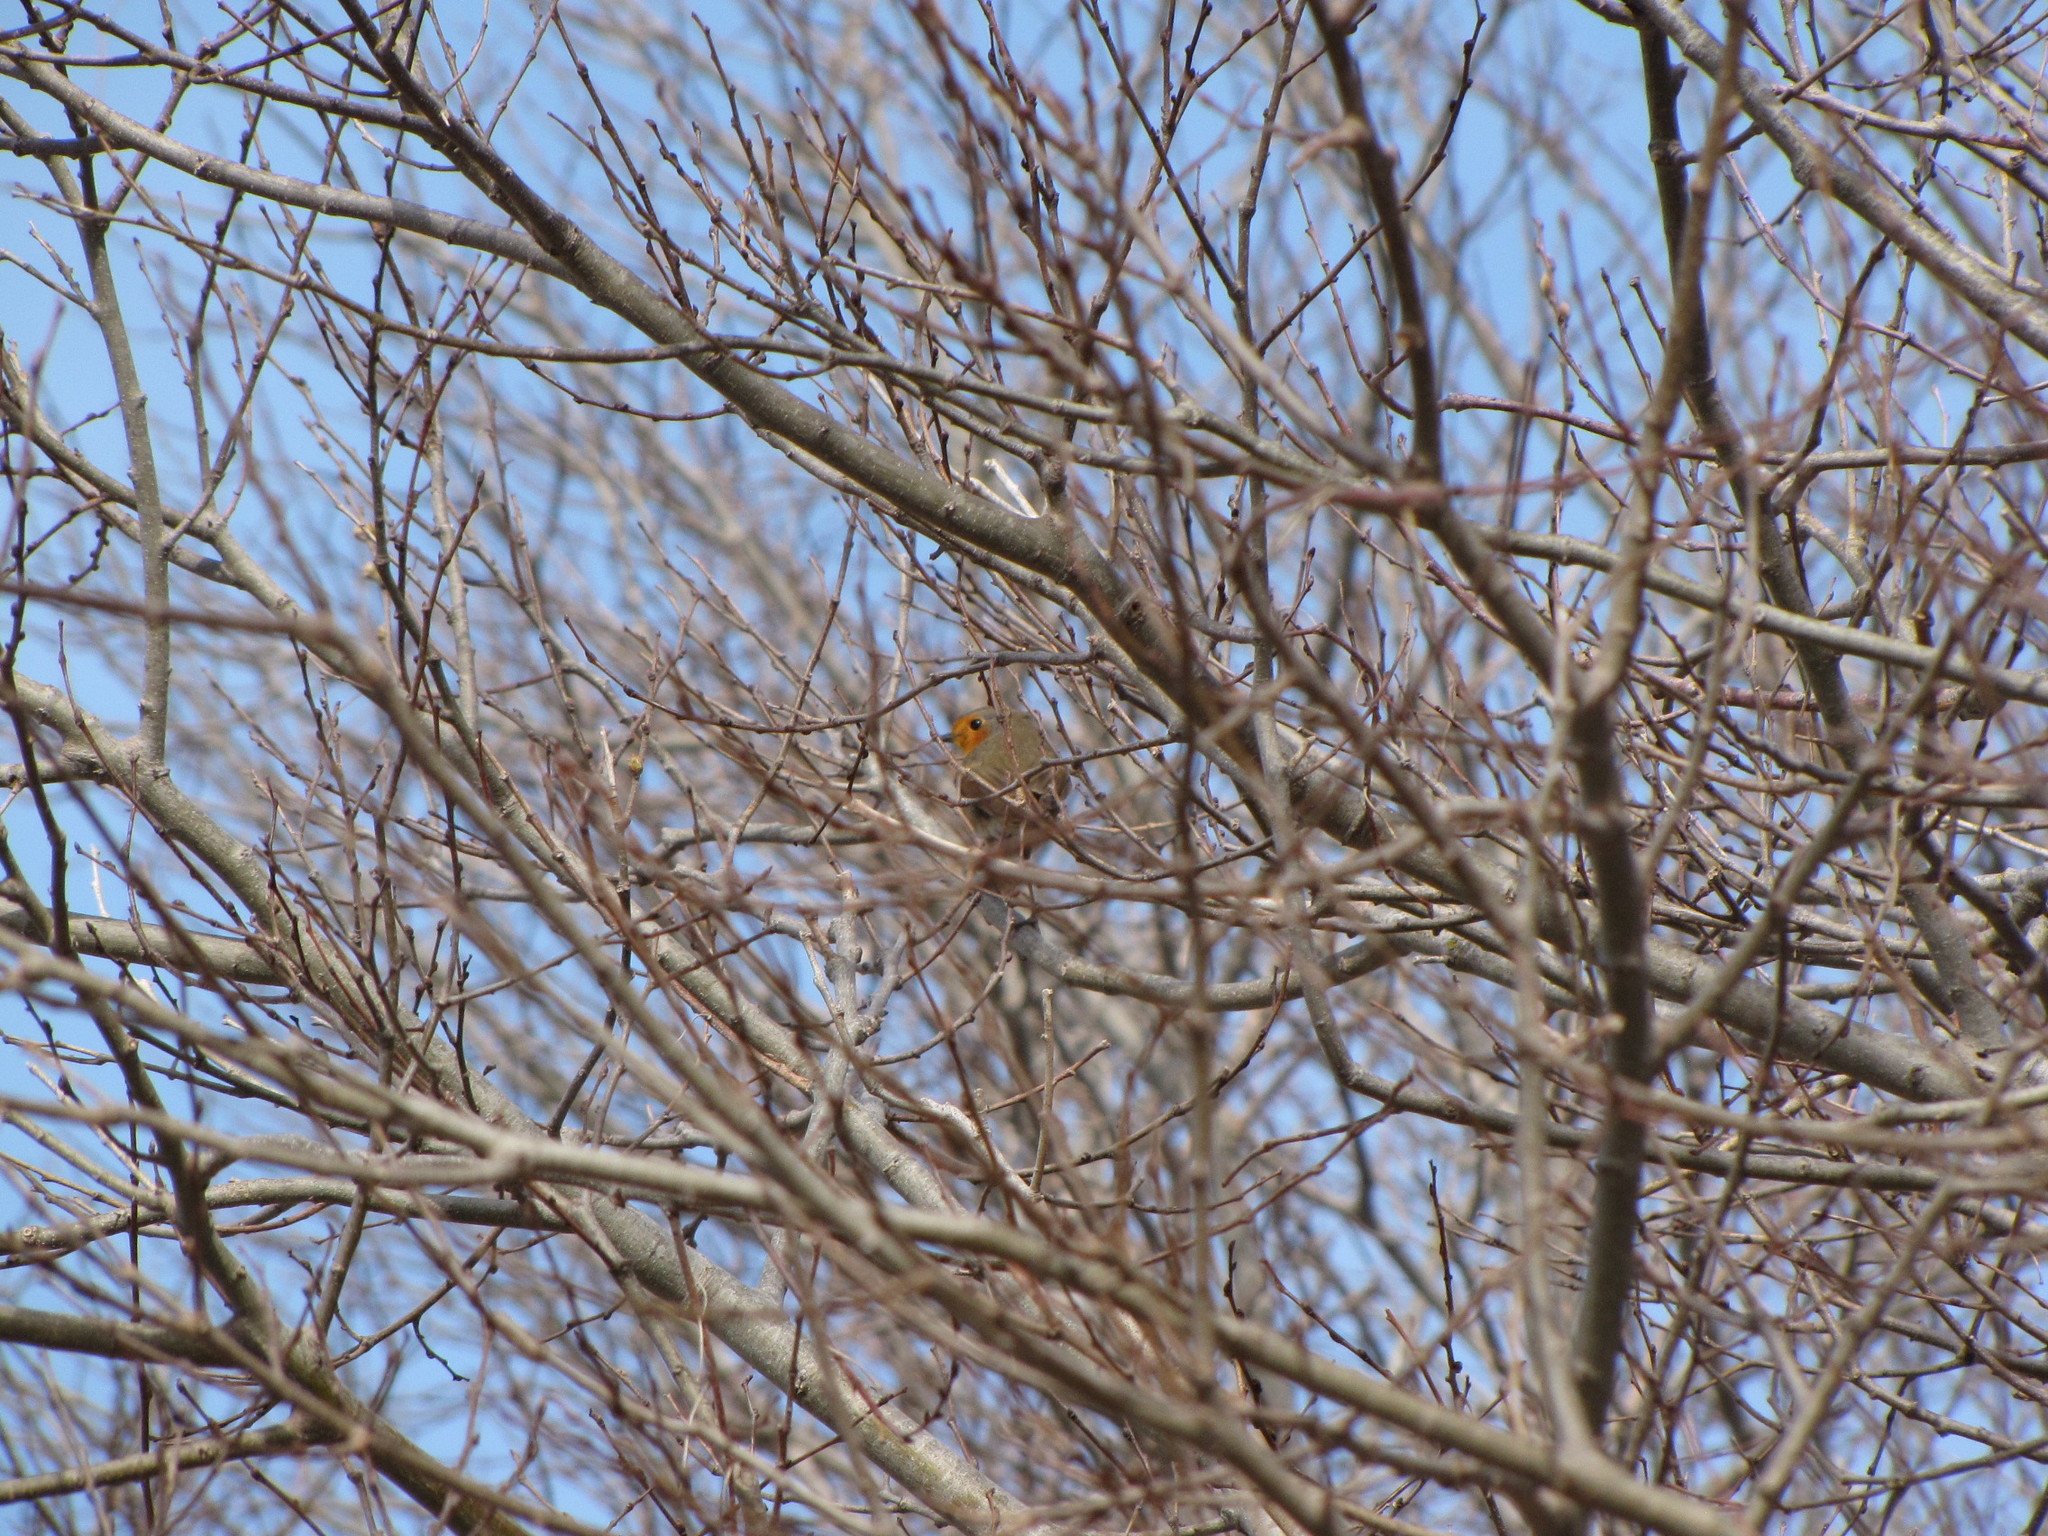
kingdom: Animalia
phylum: Chordata
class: Aves
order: Passeriformes
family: Muscicapidae
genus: Erithacus
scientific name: Erithacus rubecula
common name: European robin
